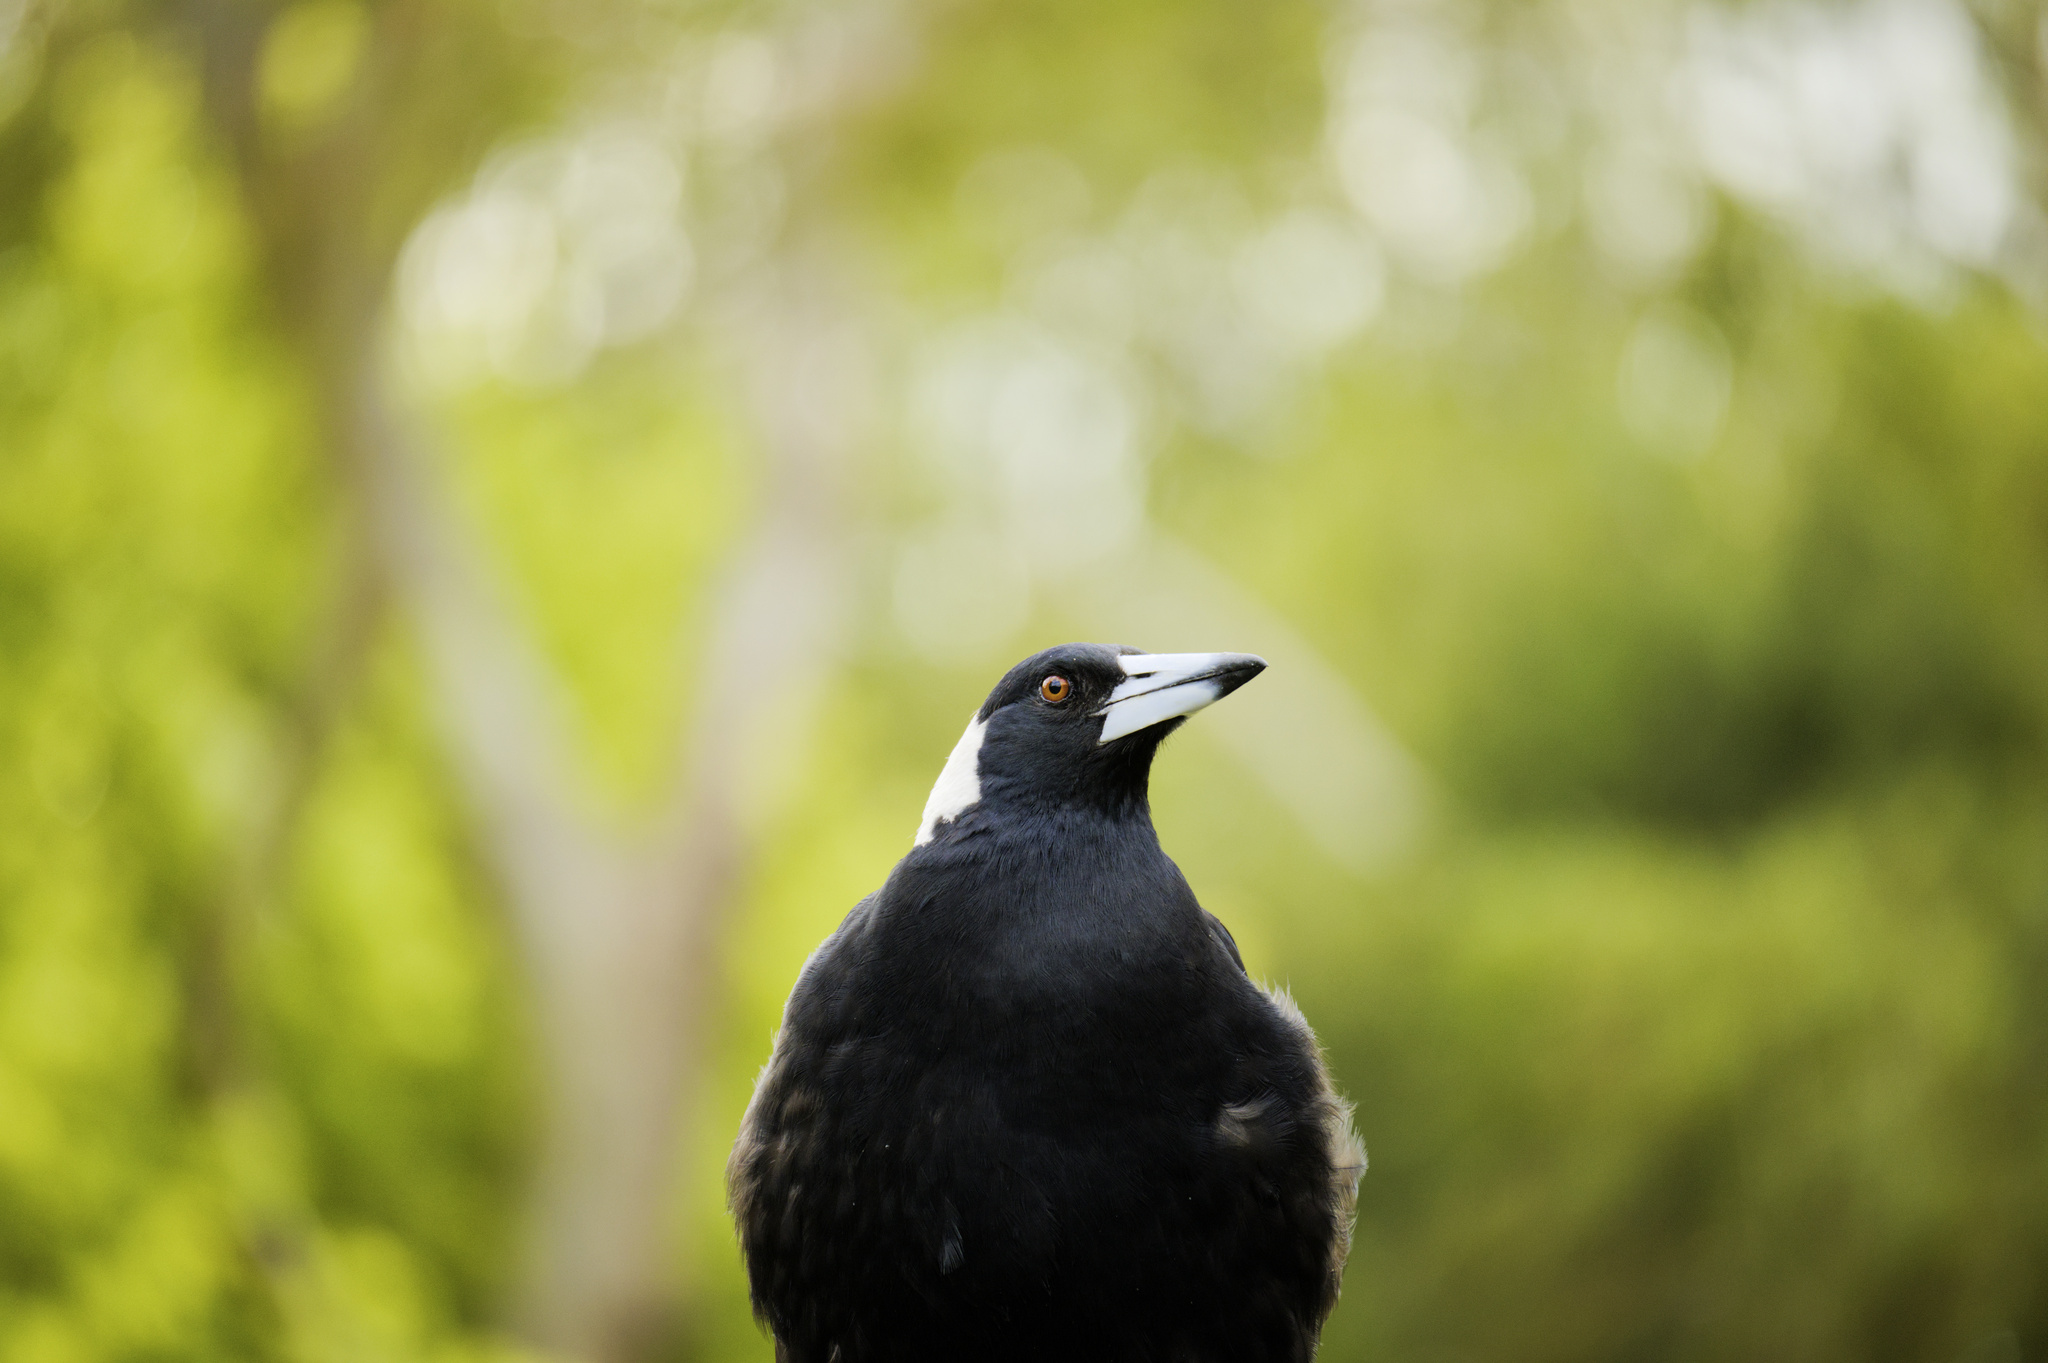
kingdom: Animalia
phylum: Chordata
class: Aves
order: Passeriformes
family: Cracticidae
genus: Gymnorhina
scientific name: Gymnorhina tibicen
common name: Australian magpie
